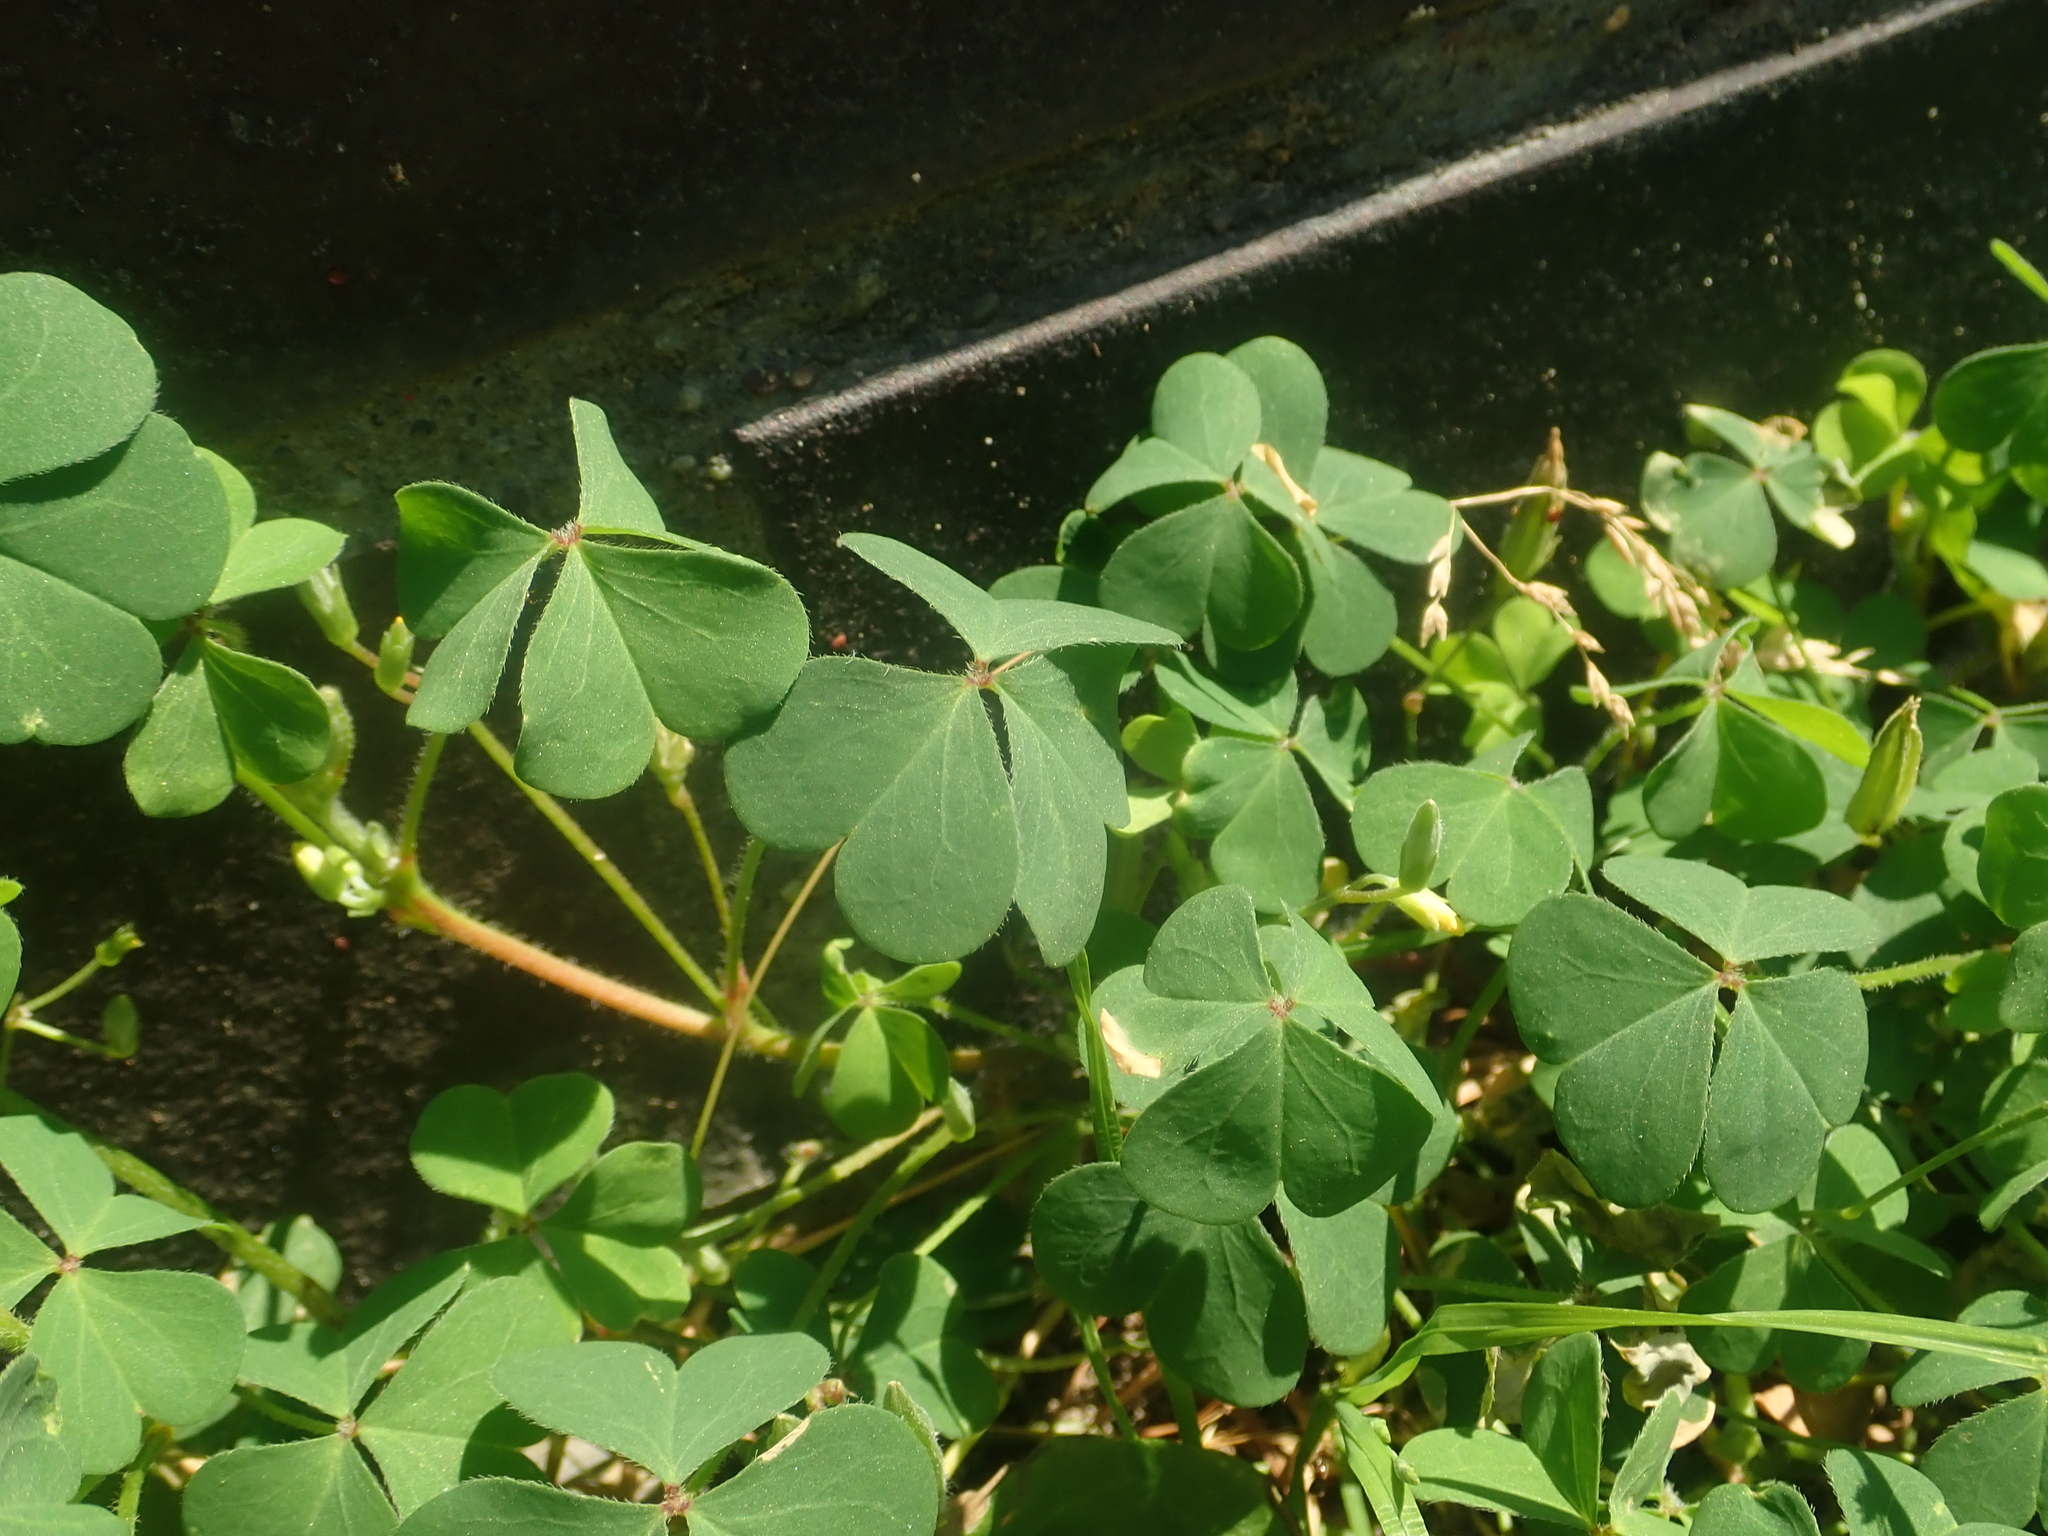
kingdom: Plantae
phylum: Tracheophyta
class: Magnoliopsida
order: Oxalidales
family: Oxalidaceae
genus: Oxalis
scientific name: Oxalis corniculata
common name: Procumbent yellow-sorrel
